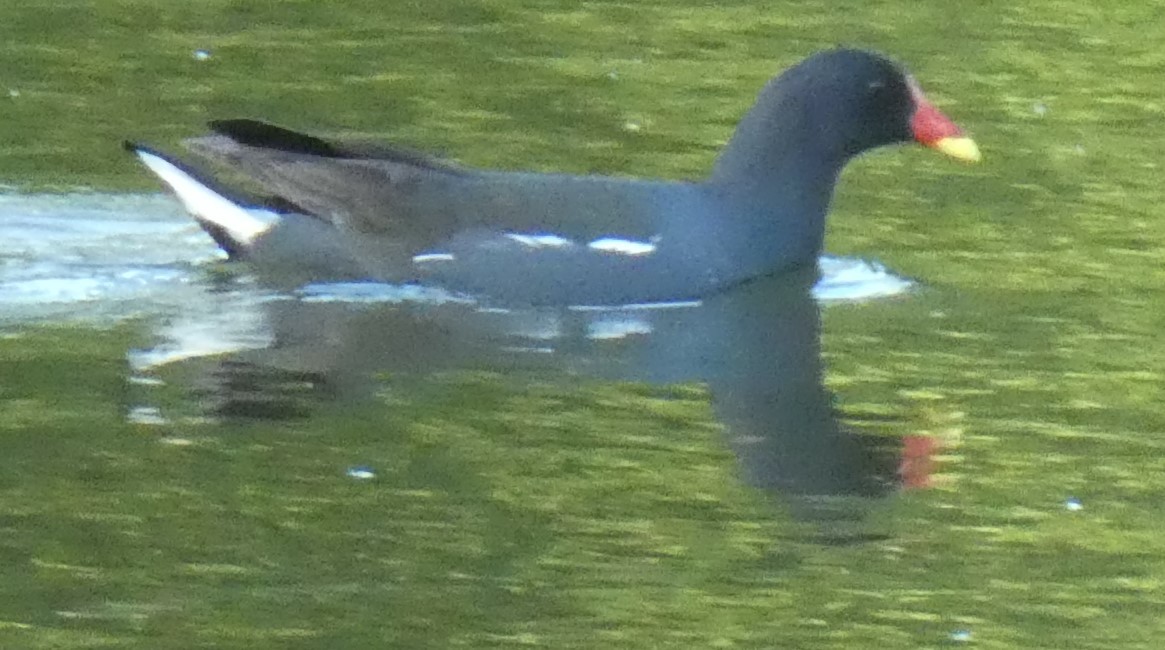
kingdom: Animalia
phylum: Chordata
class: Aves
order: Gruiformes
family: Rallidae
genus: Gallinula
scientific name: Gallinula chloropus
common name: Common moorhen
